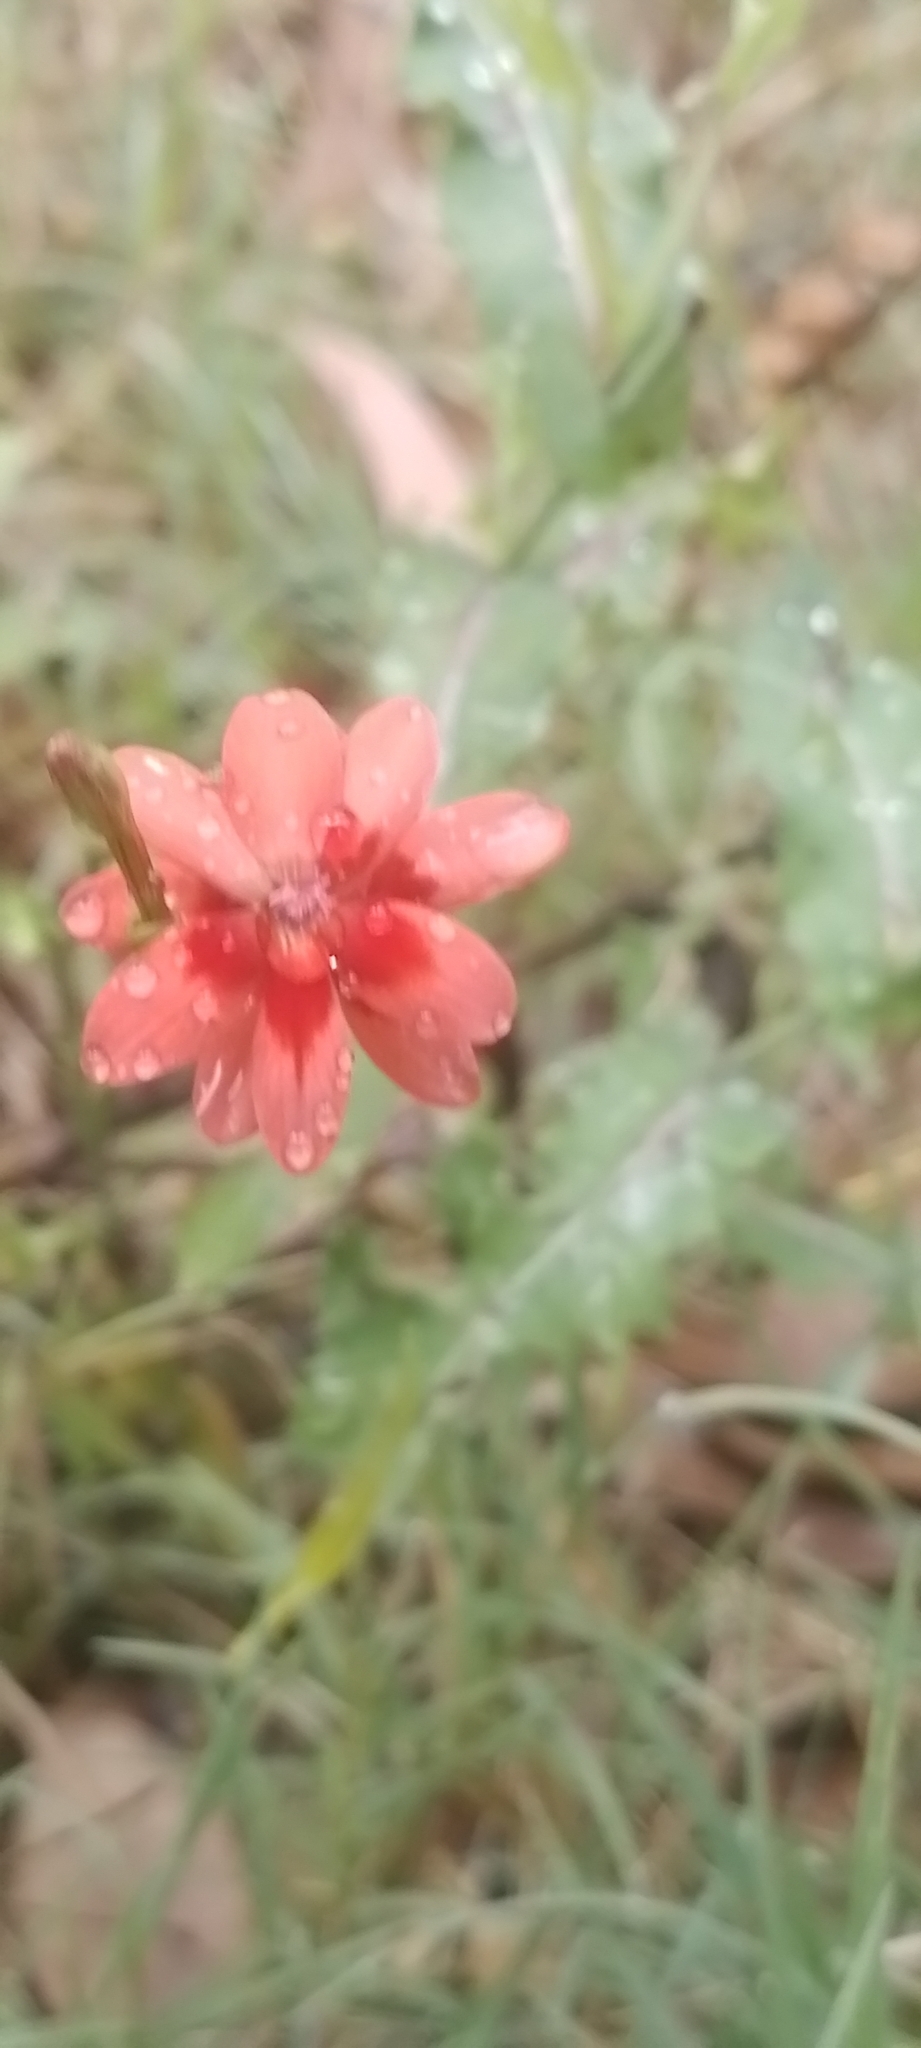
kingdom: Plantae
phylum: Tracheophyta
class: Liliopsida
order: Asparagales
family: Iridaceae
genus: Freesia
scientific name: Freesia laxa
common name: False freesia
